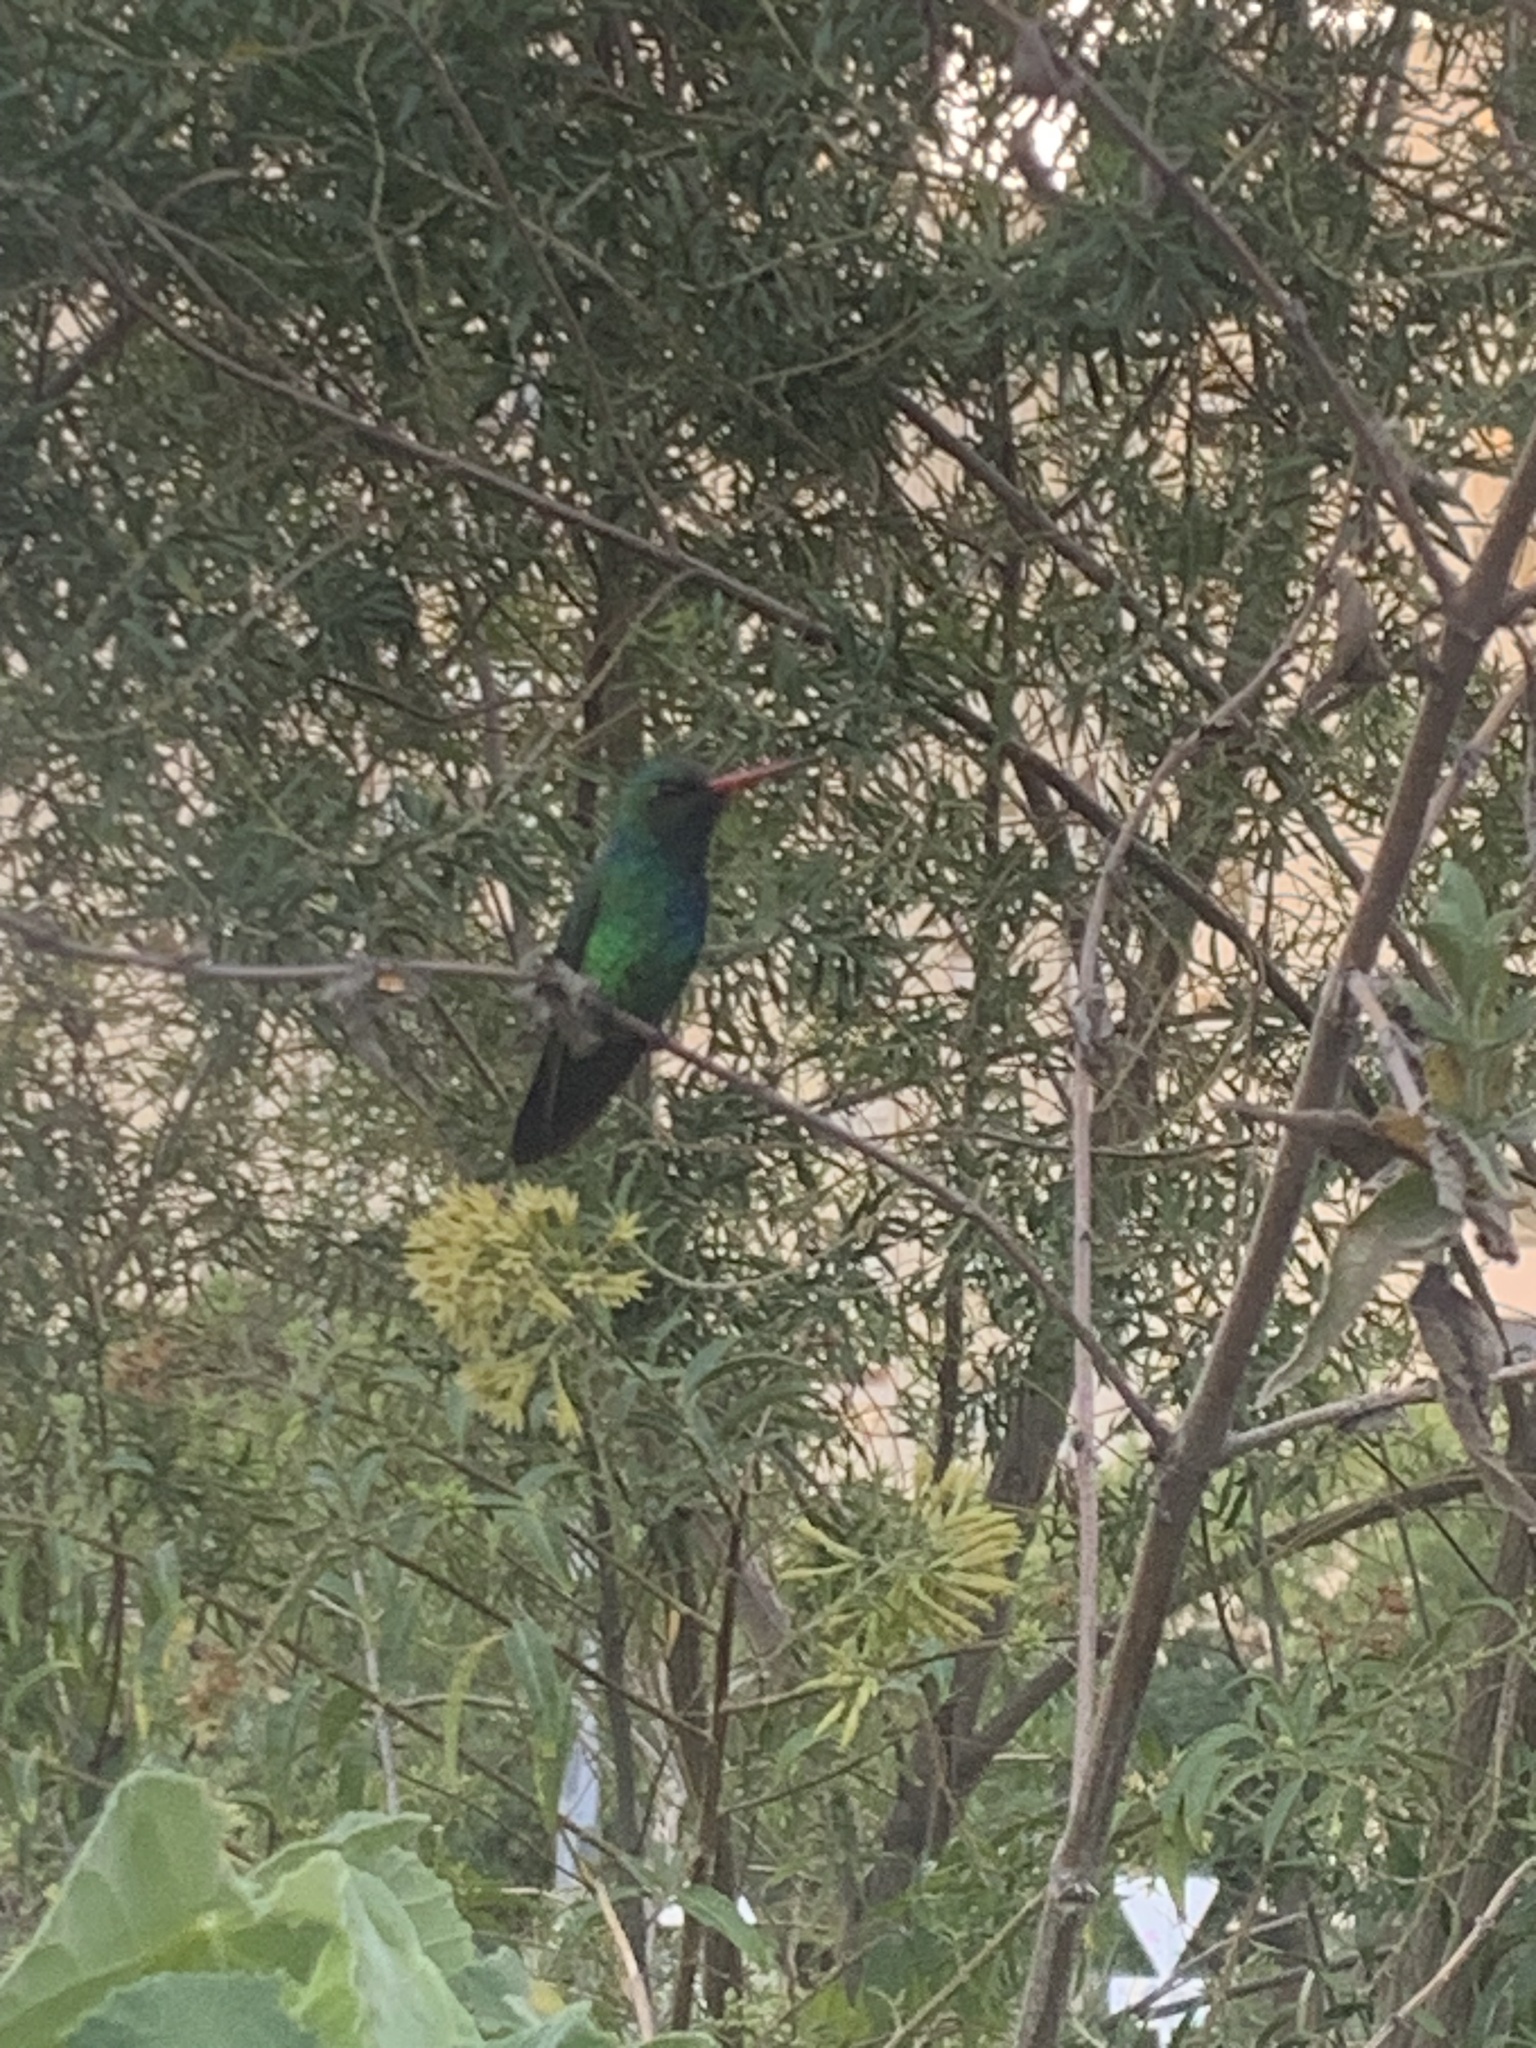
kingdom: Animalia
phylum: Chordata
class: Aves
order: Apodiformes
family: Trochilidae
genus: Chlorostilbon
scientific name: Chlorostilbon lucidus
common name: Glittering-bellied emerald
